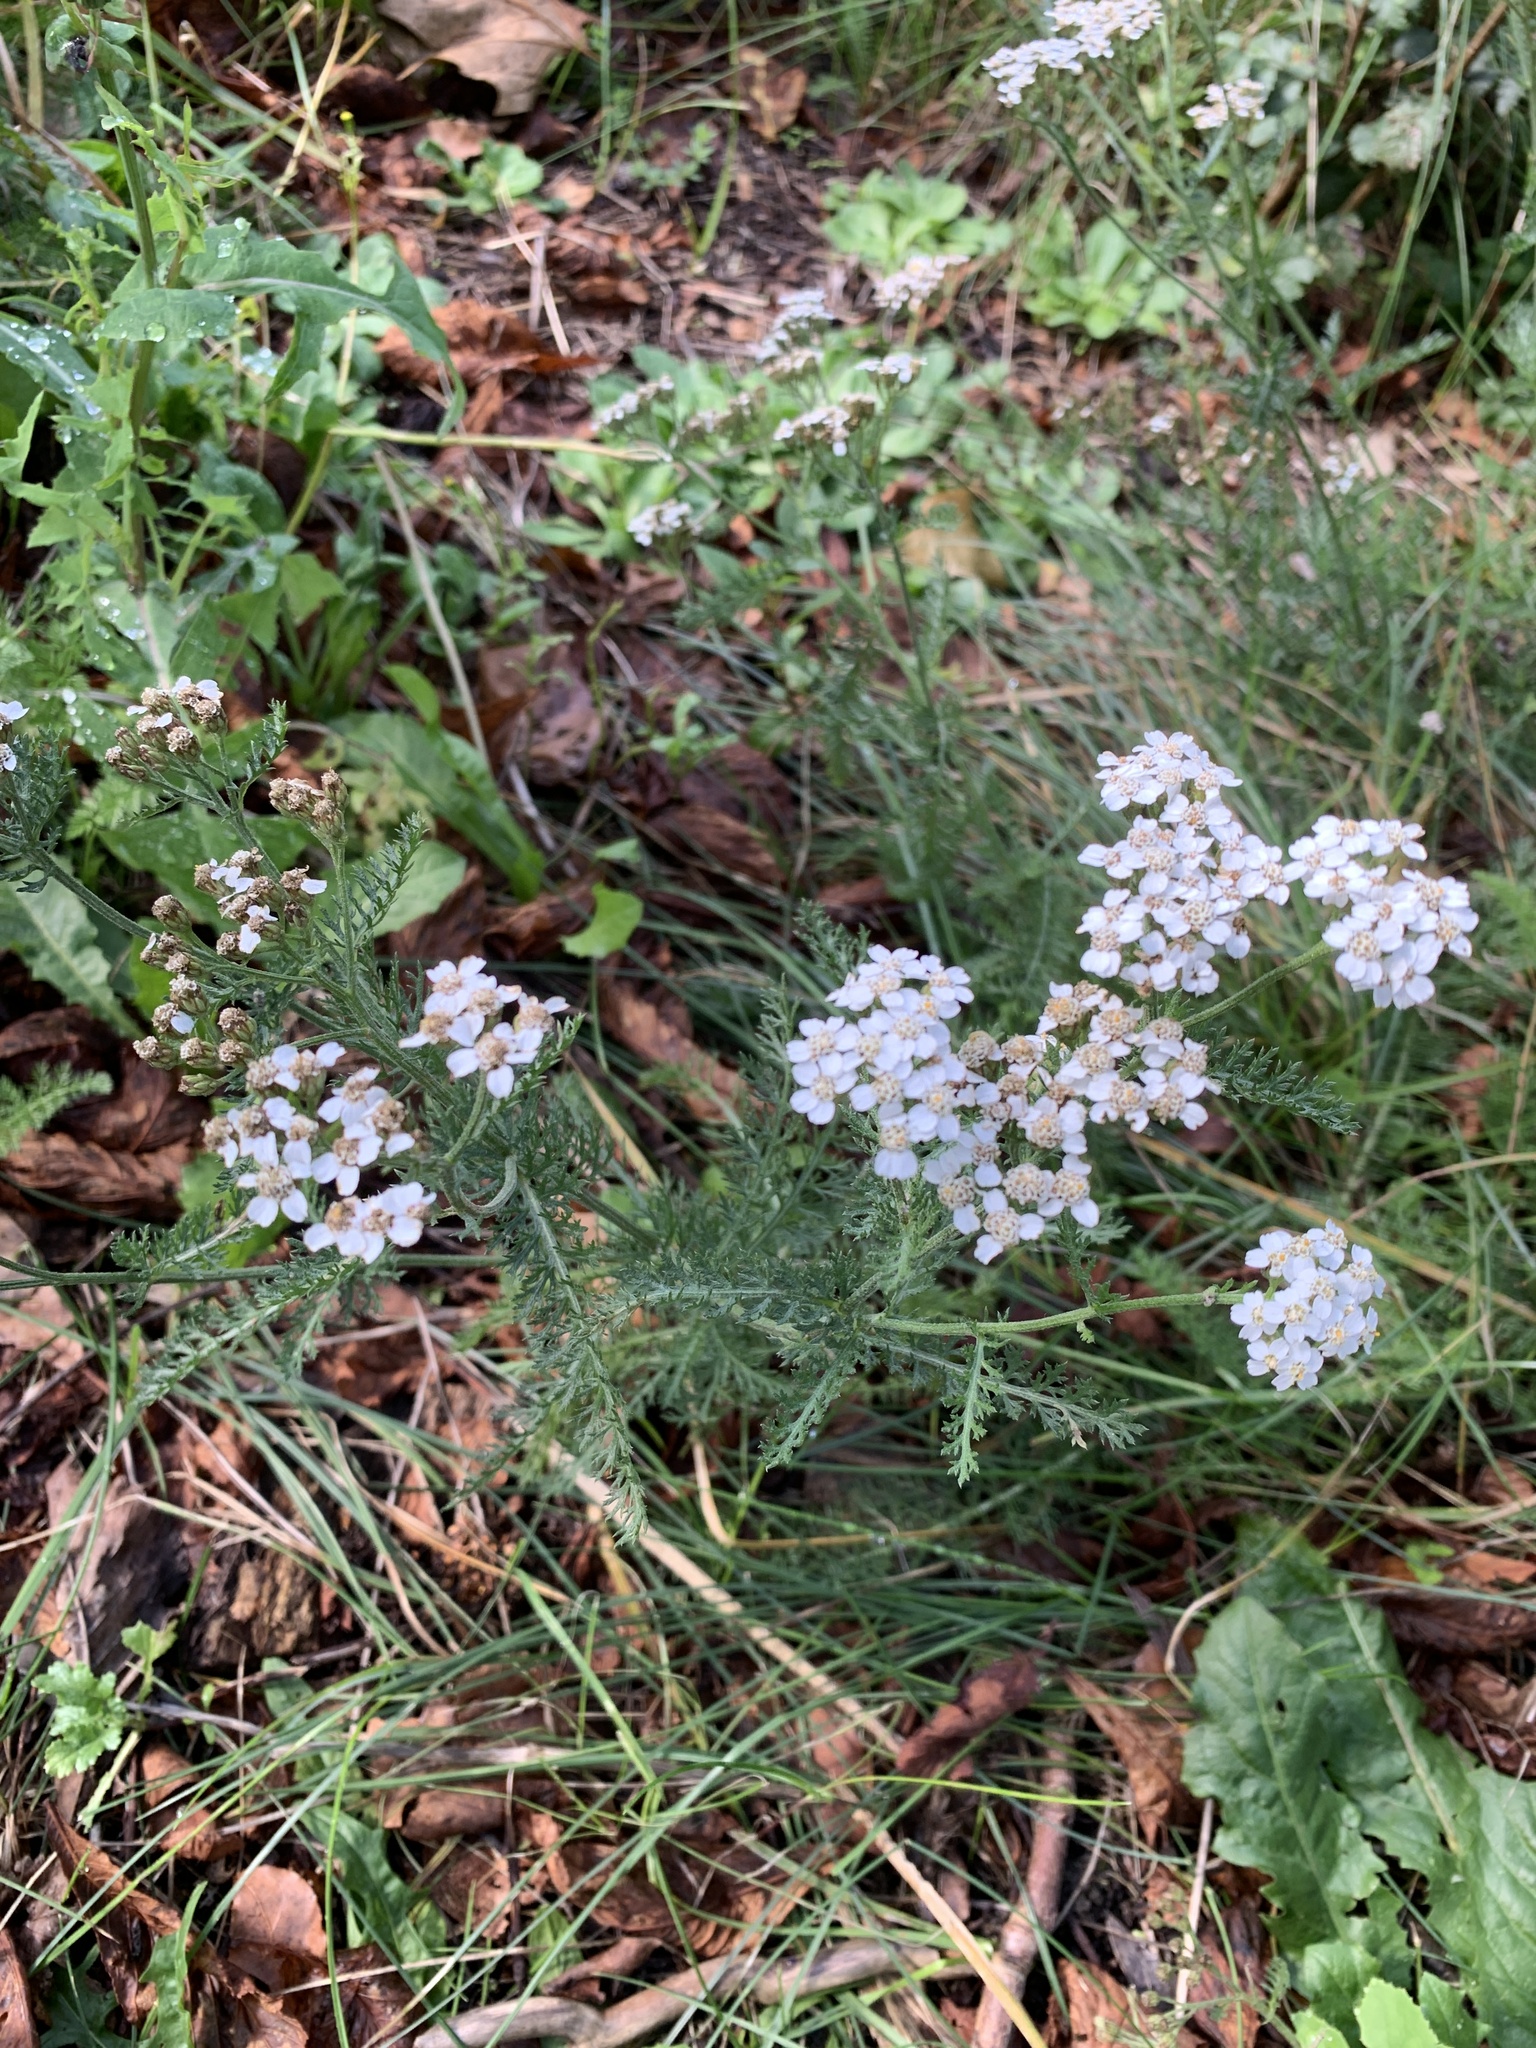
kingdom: Plantae
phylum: Tracheophyta
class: Magnoliopsida
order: Asterales
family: Asteraceae
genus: Achillea
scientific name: Achillea millefolium
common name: Yarrow
